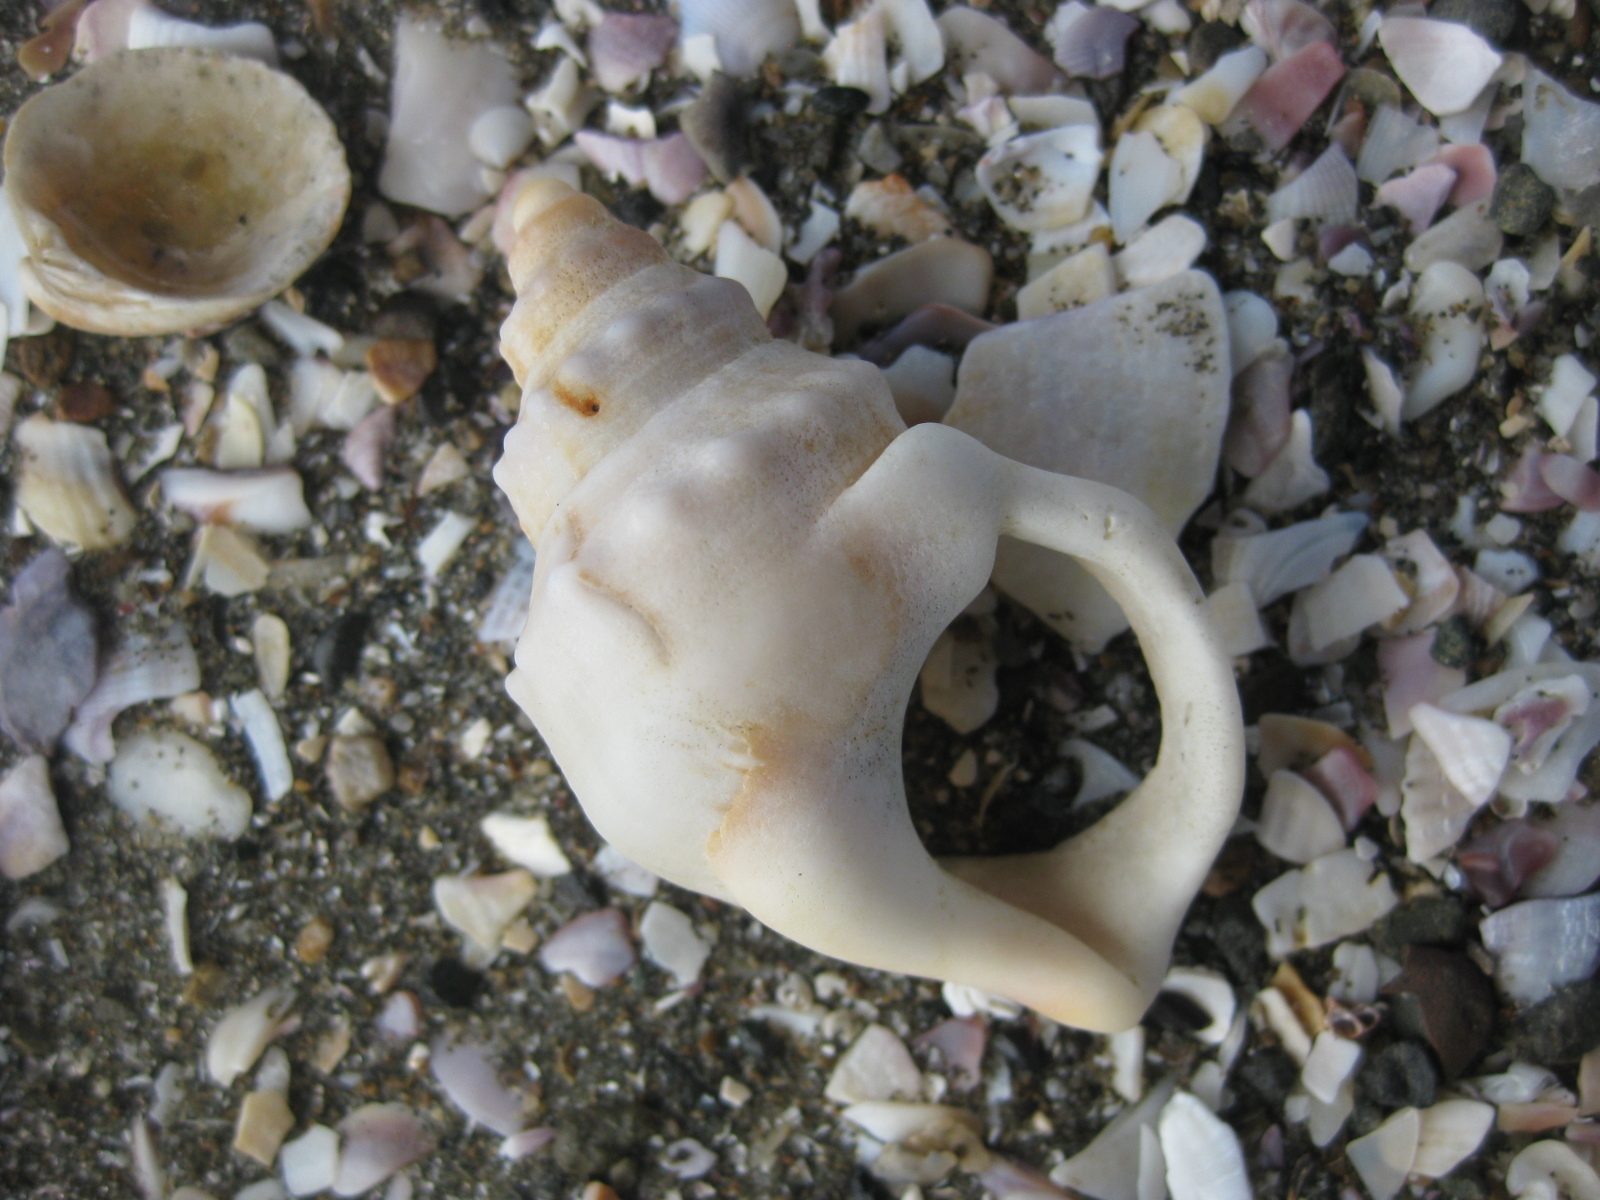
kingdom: Animalia
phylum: Mollusca
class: Gastropoda
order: Littorinimorpha
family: Struthiolariidae
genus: Struthiolaria
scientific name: Struthiolaria papulosa
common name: Large ostrich foot
